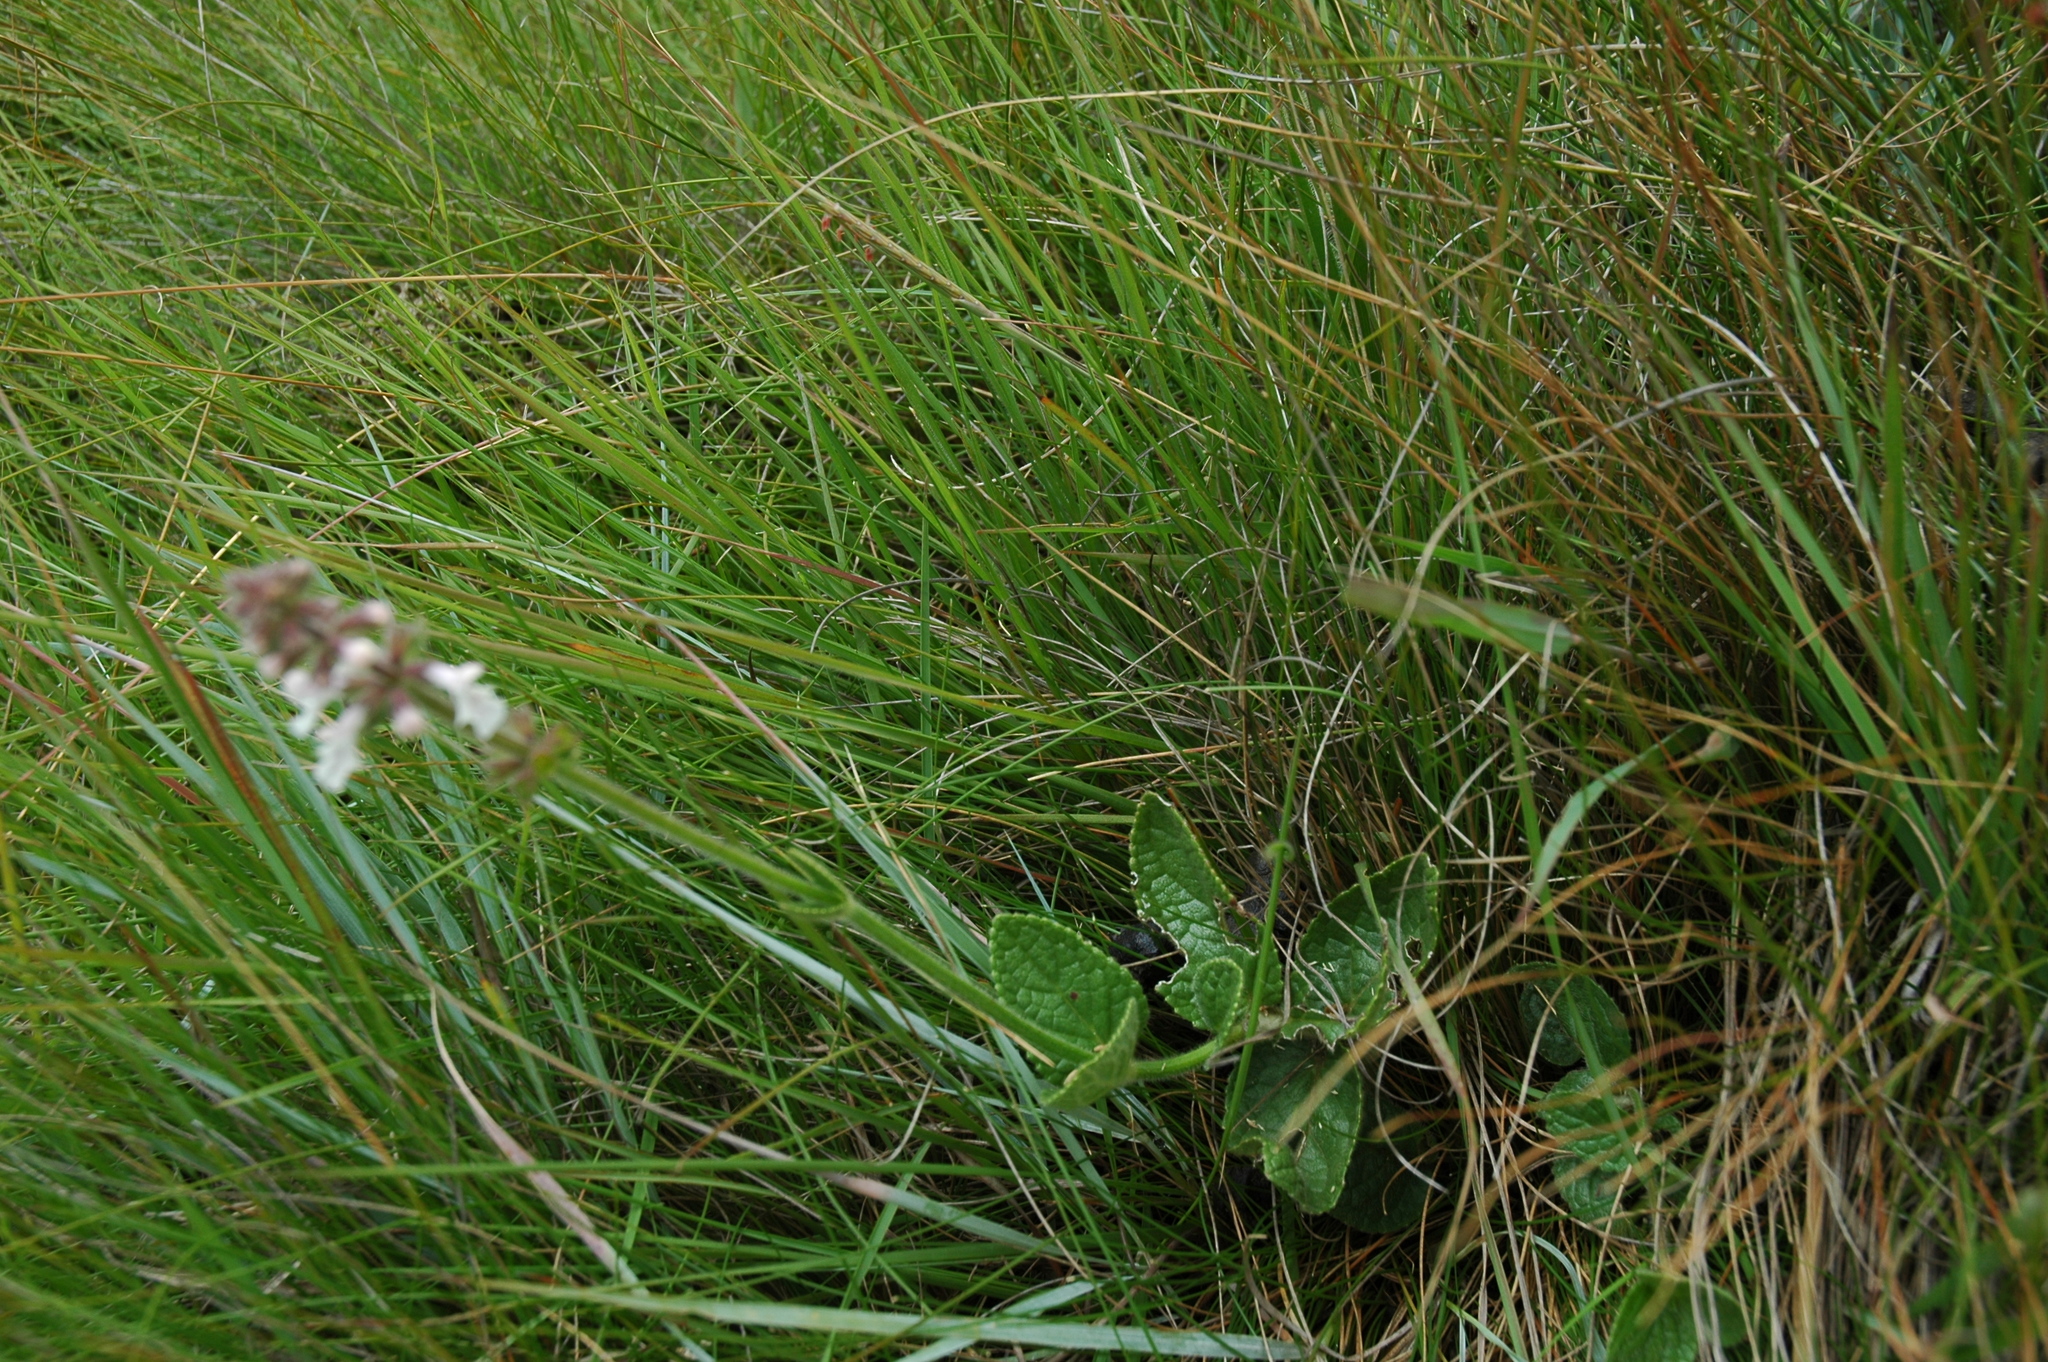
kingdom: Plantae
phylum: Tracheophyta
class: Magnoliopsida
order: Lamiales
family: Lamiaceae
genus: Stachys
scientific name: Stachys simplex
